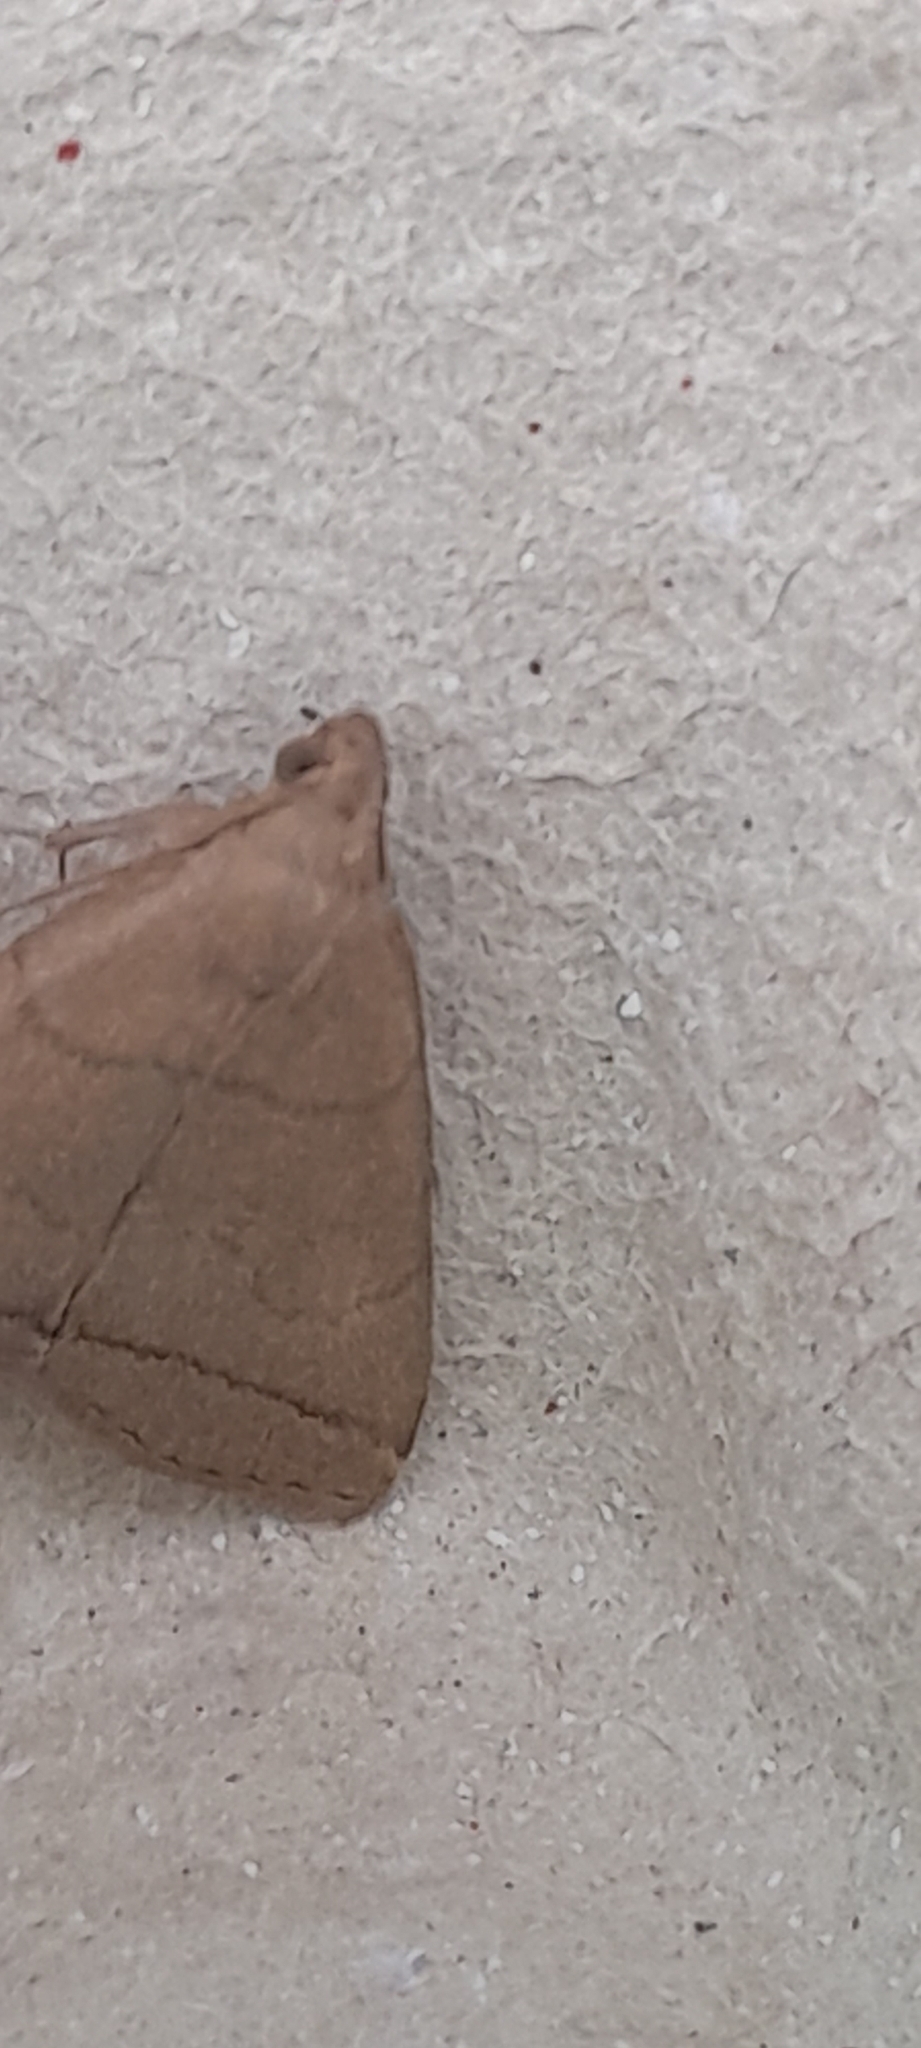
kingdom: Animalia
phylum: Arthropoda
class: Insecta
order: Lepidoptera
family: Erebidae
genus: Herminia
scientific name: Herminia tarsipennalis
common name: Fan-foot
